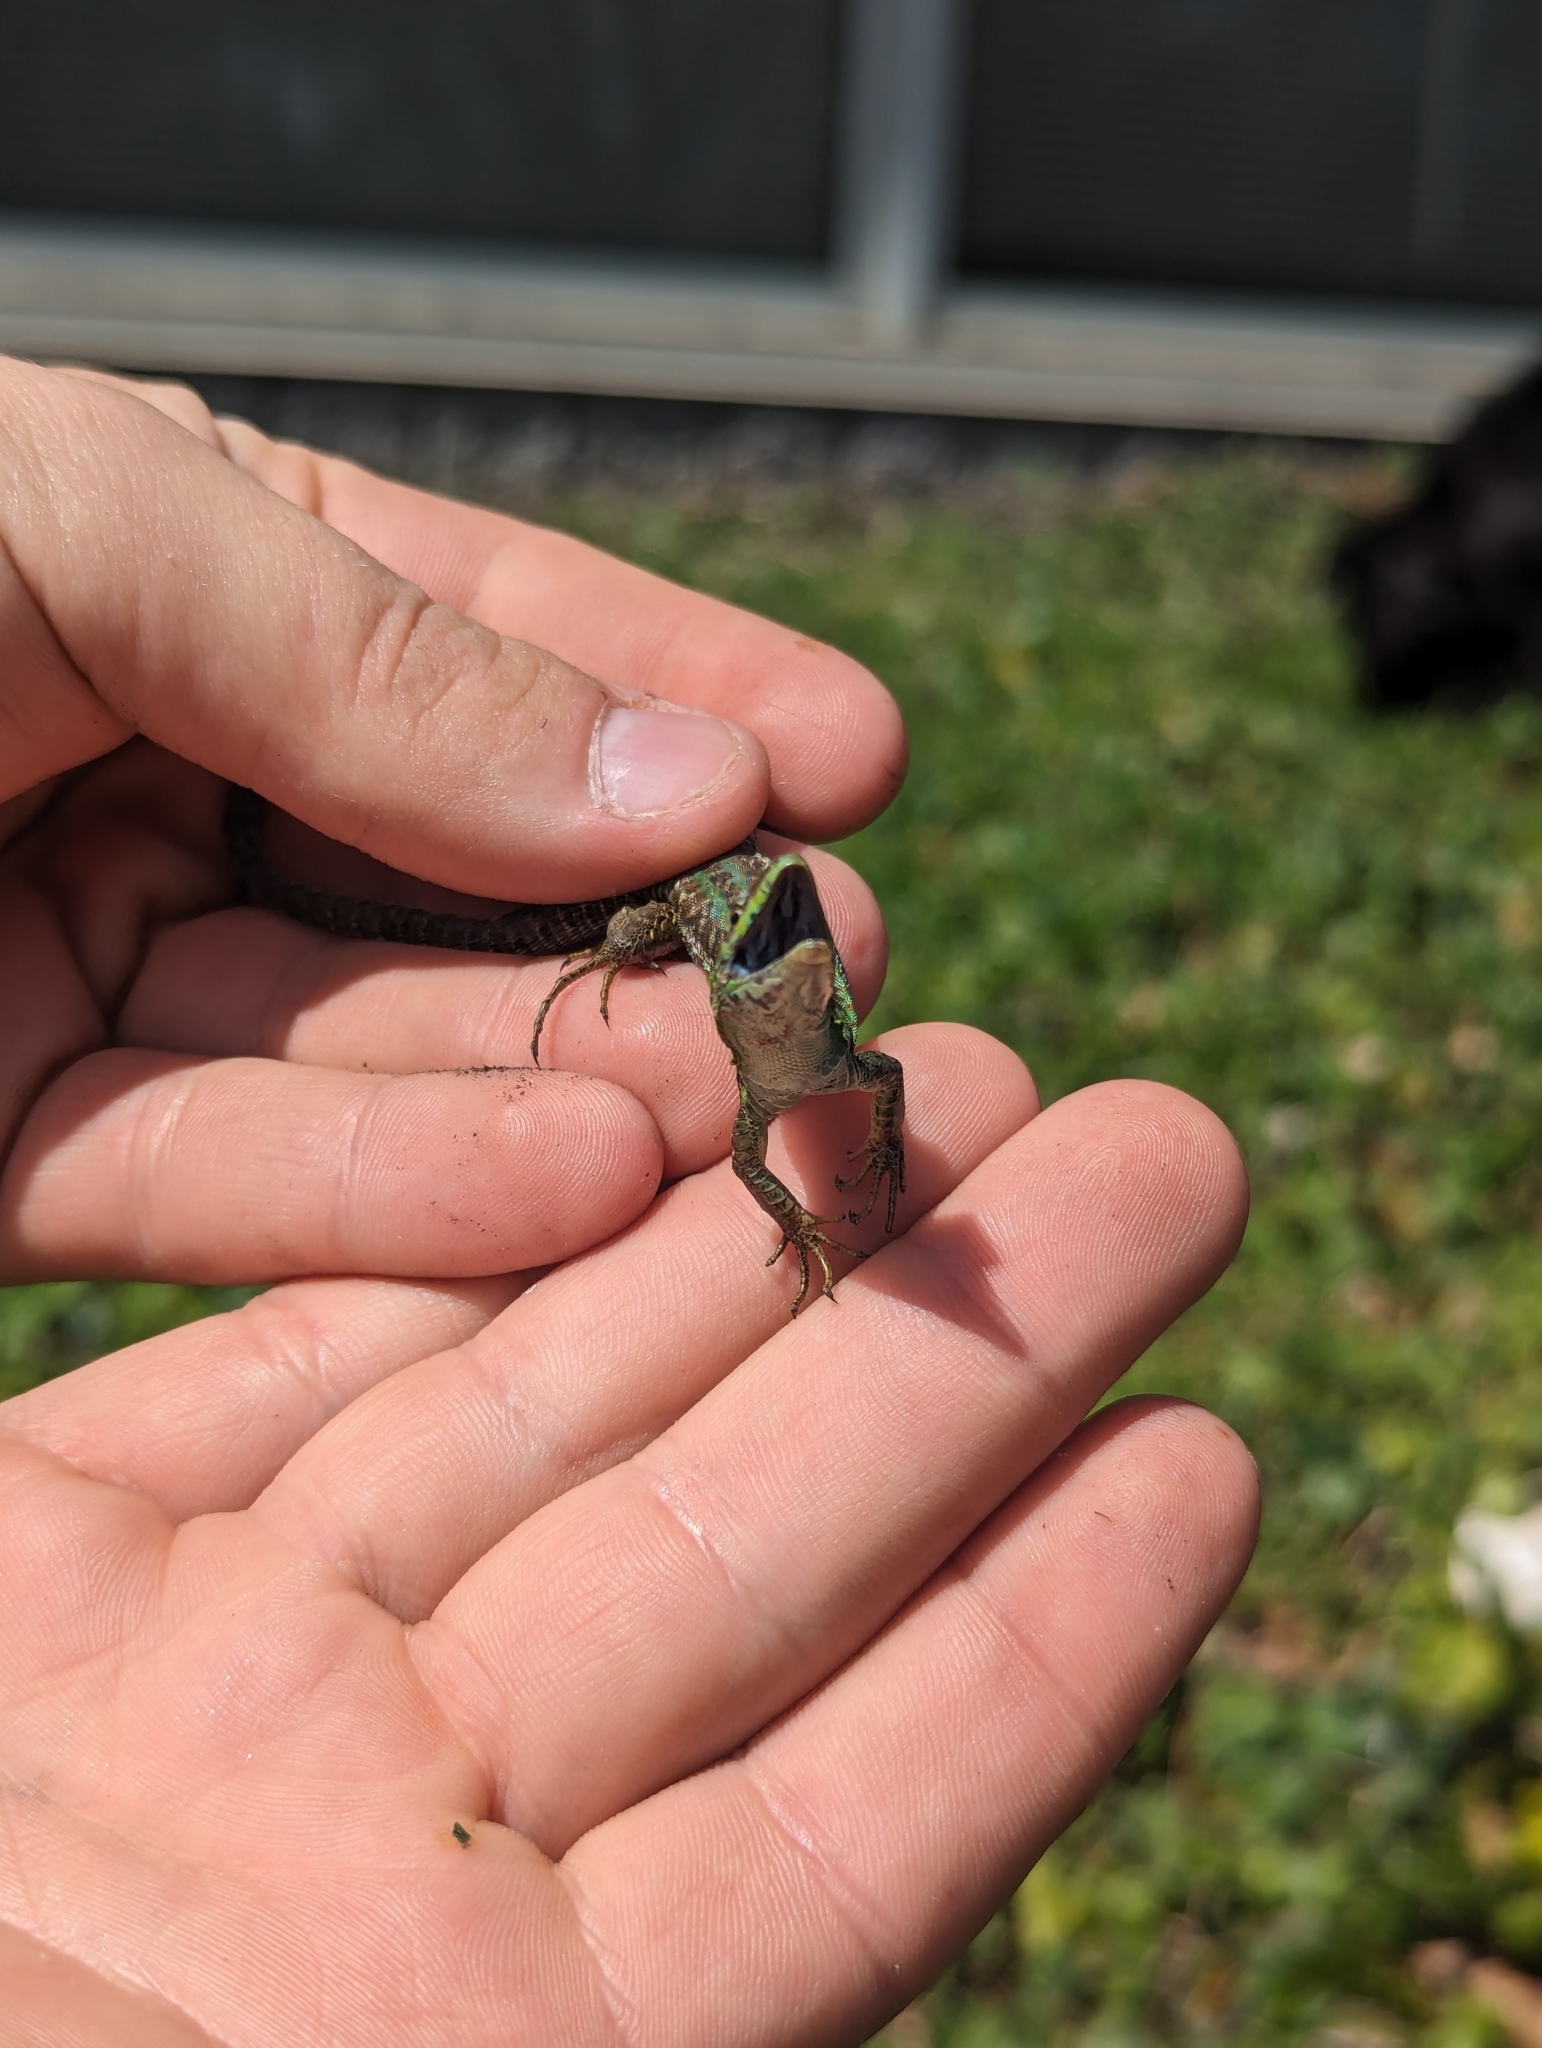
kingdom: Animalia
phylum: Chordata
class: Squamata
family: Lacertidae
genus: Podarcis
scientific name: Podarcis siculus
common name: Italian wall lizard
